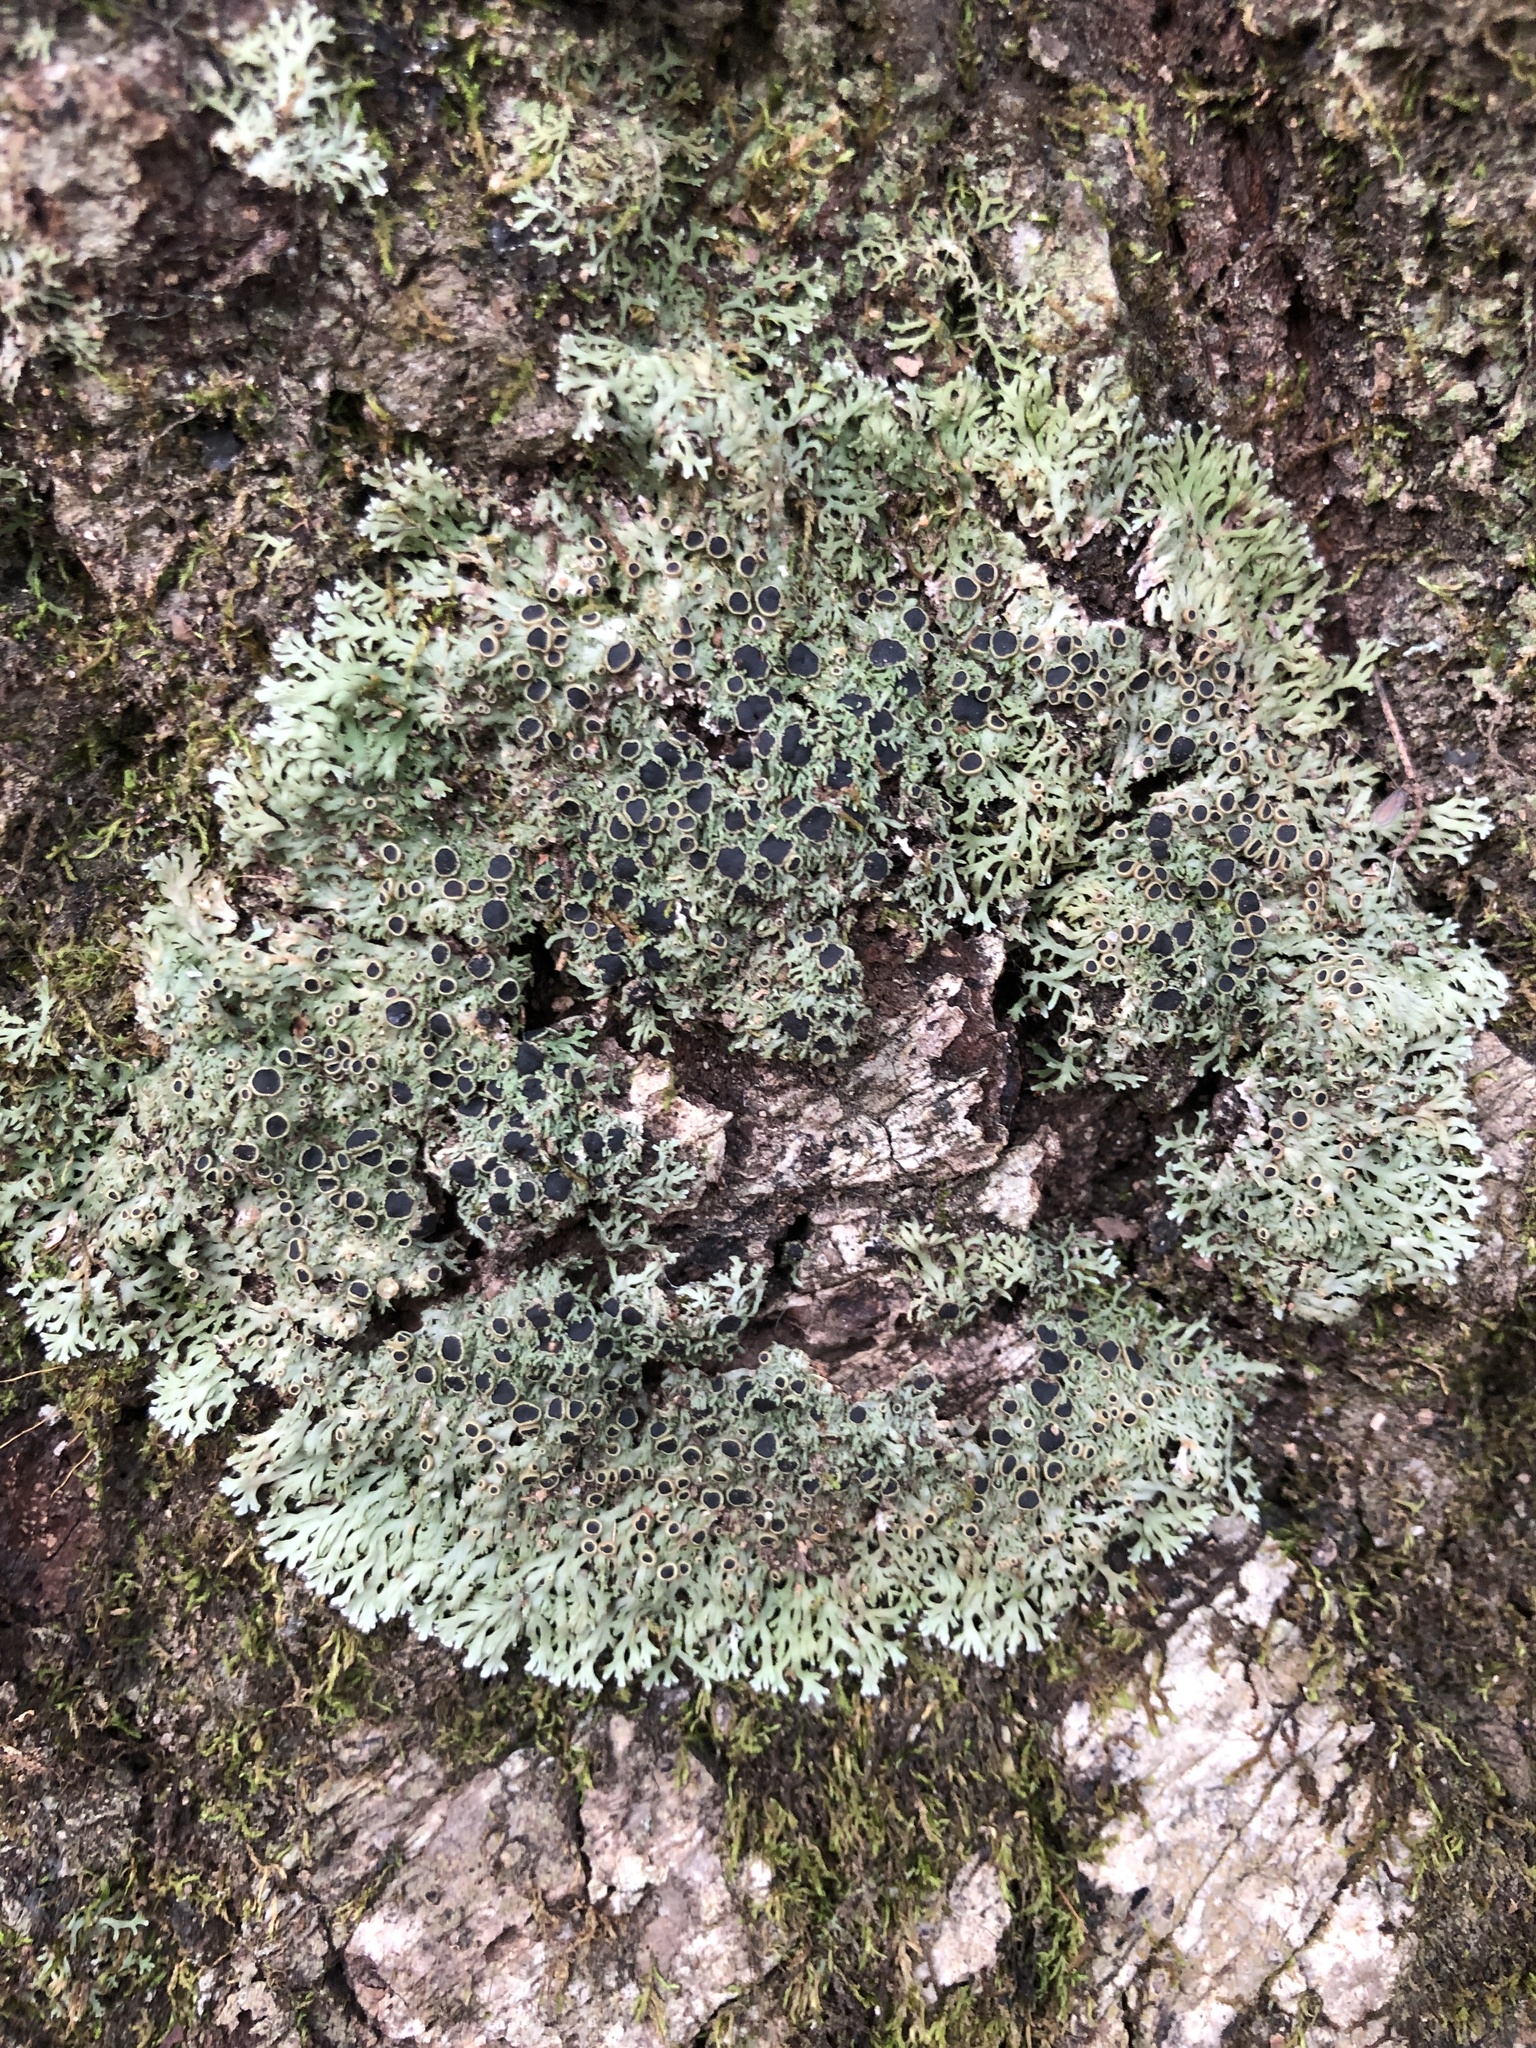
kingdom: Fungi
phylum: Ascomycota
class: Lecanoromycetes
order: Caliciales
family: Physciaceae
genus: Kurokawia
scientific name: Kurokawia palmulata
